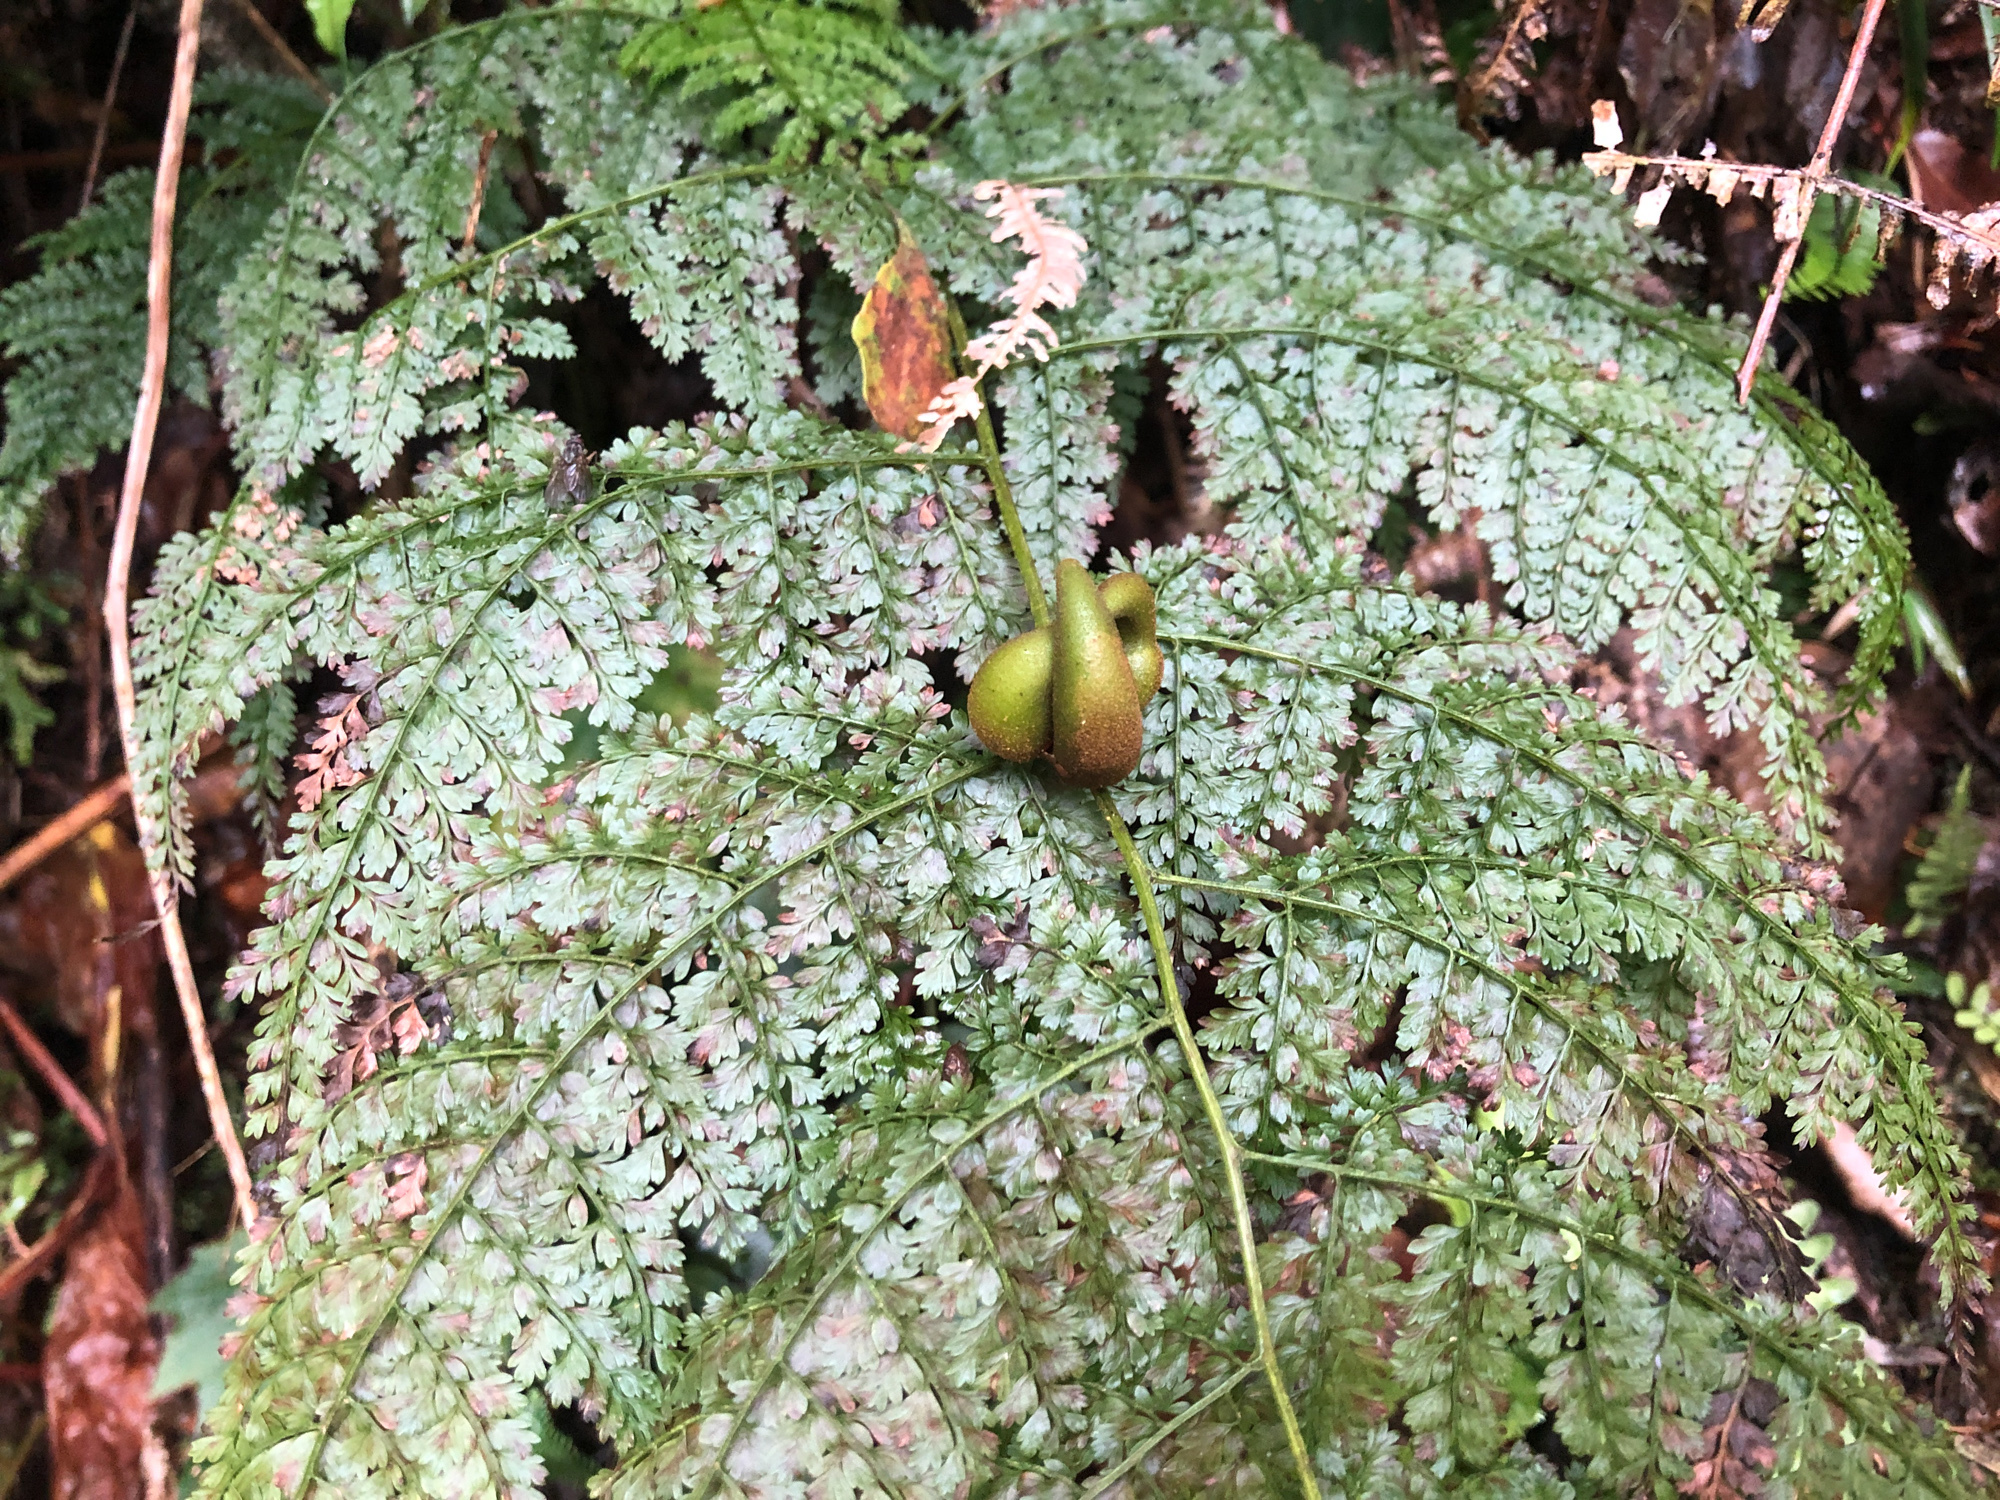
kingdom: Plantae
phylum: Tracheophyta
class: Polypodiopsida
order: Polypodiales
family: Dennstaedtiaceae
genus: Monachosorum
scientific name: Monachosorum henryi
